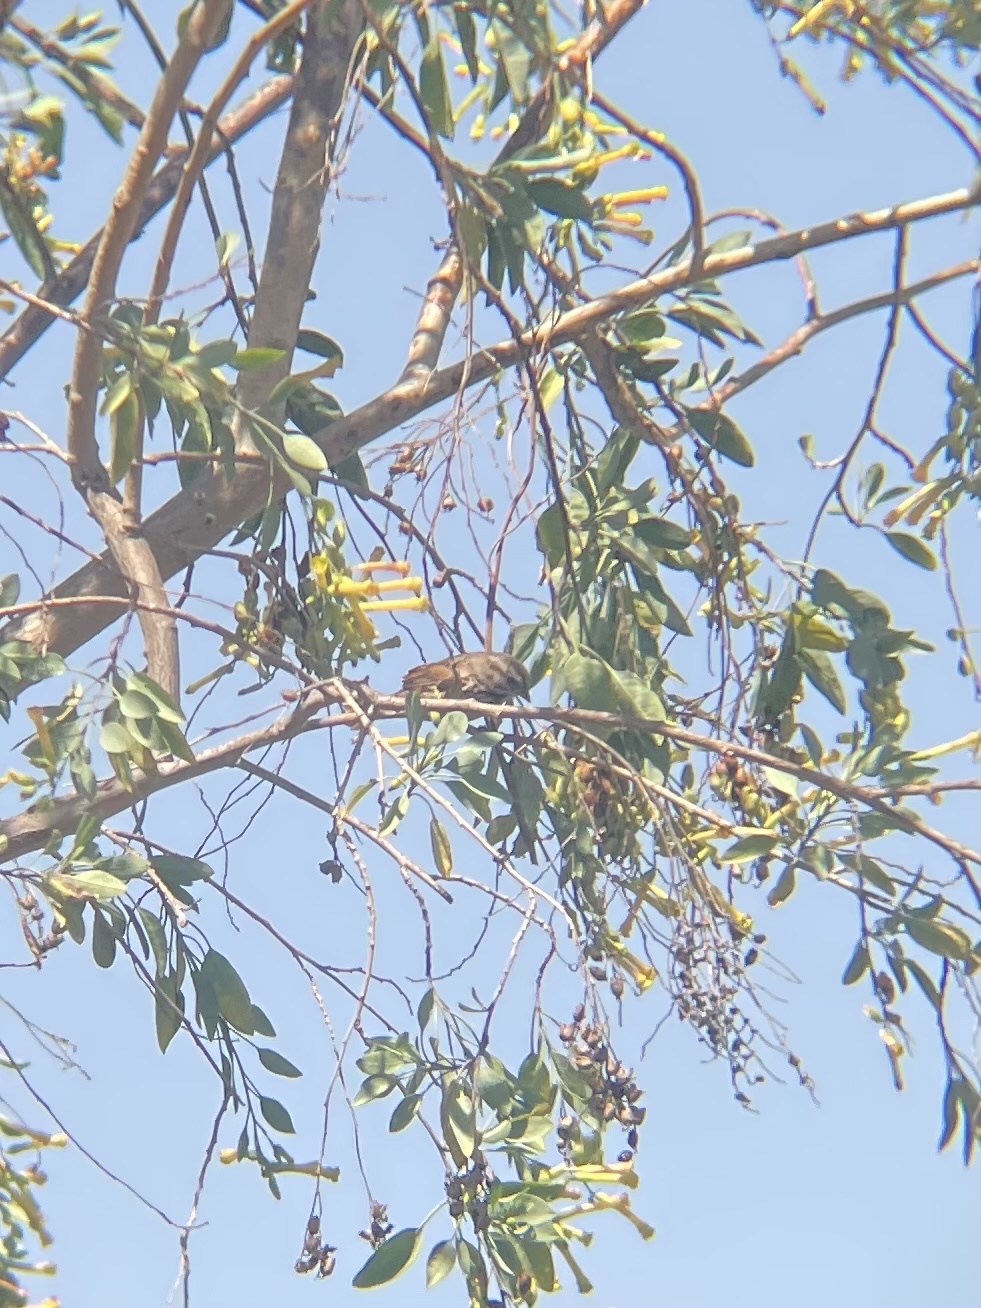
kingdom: Animalia
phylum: Chordata
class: Aves
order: Passeriformes
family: Passerellidae
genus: Melospiza
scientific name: Melospiza melodia
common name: Song sparrow
